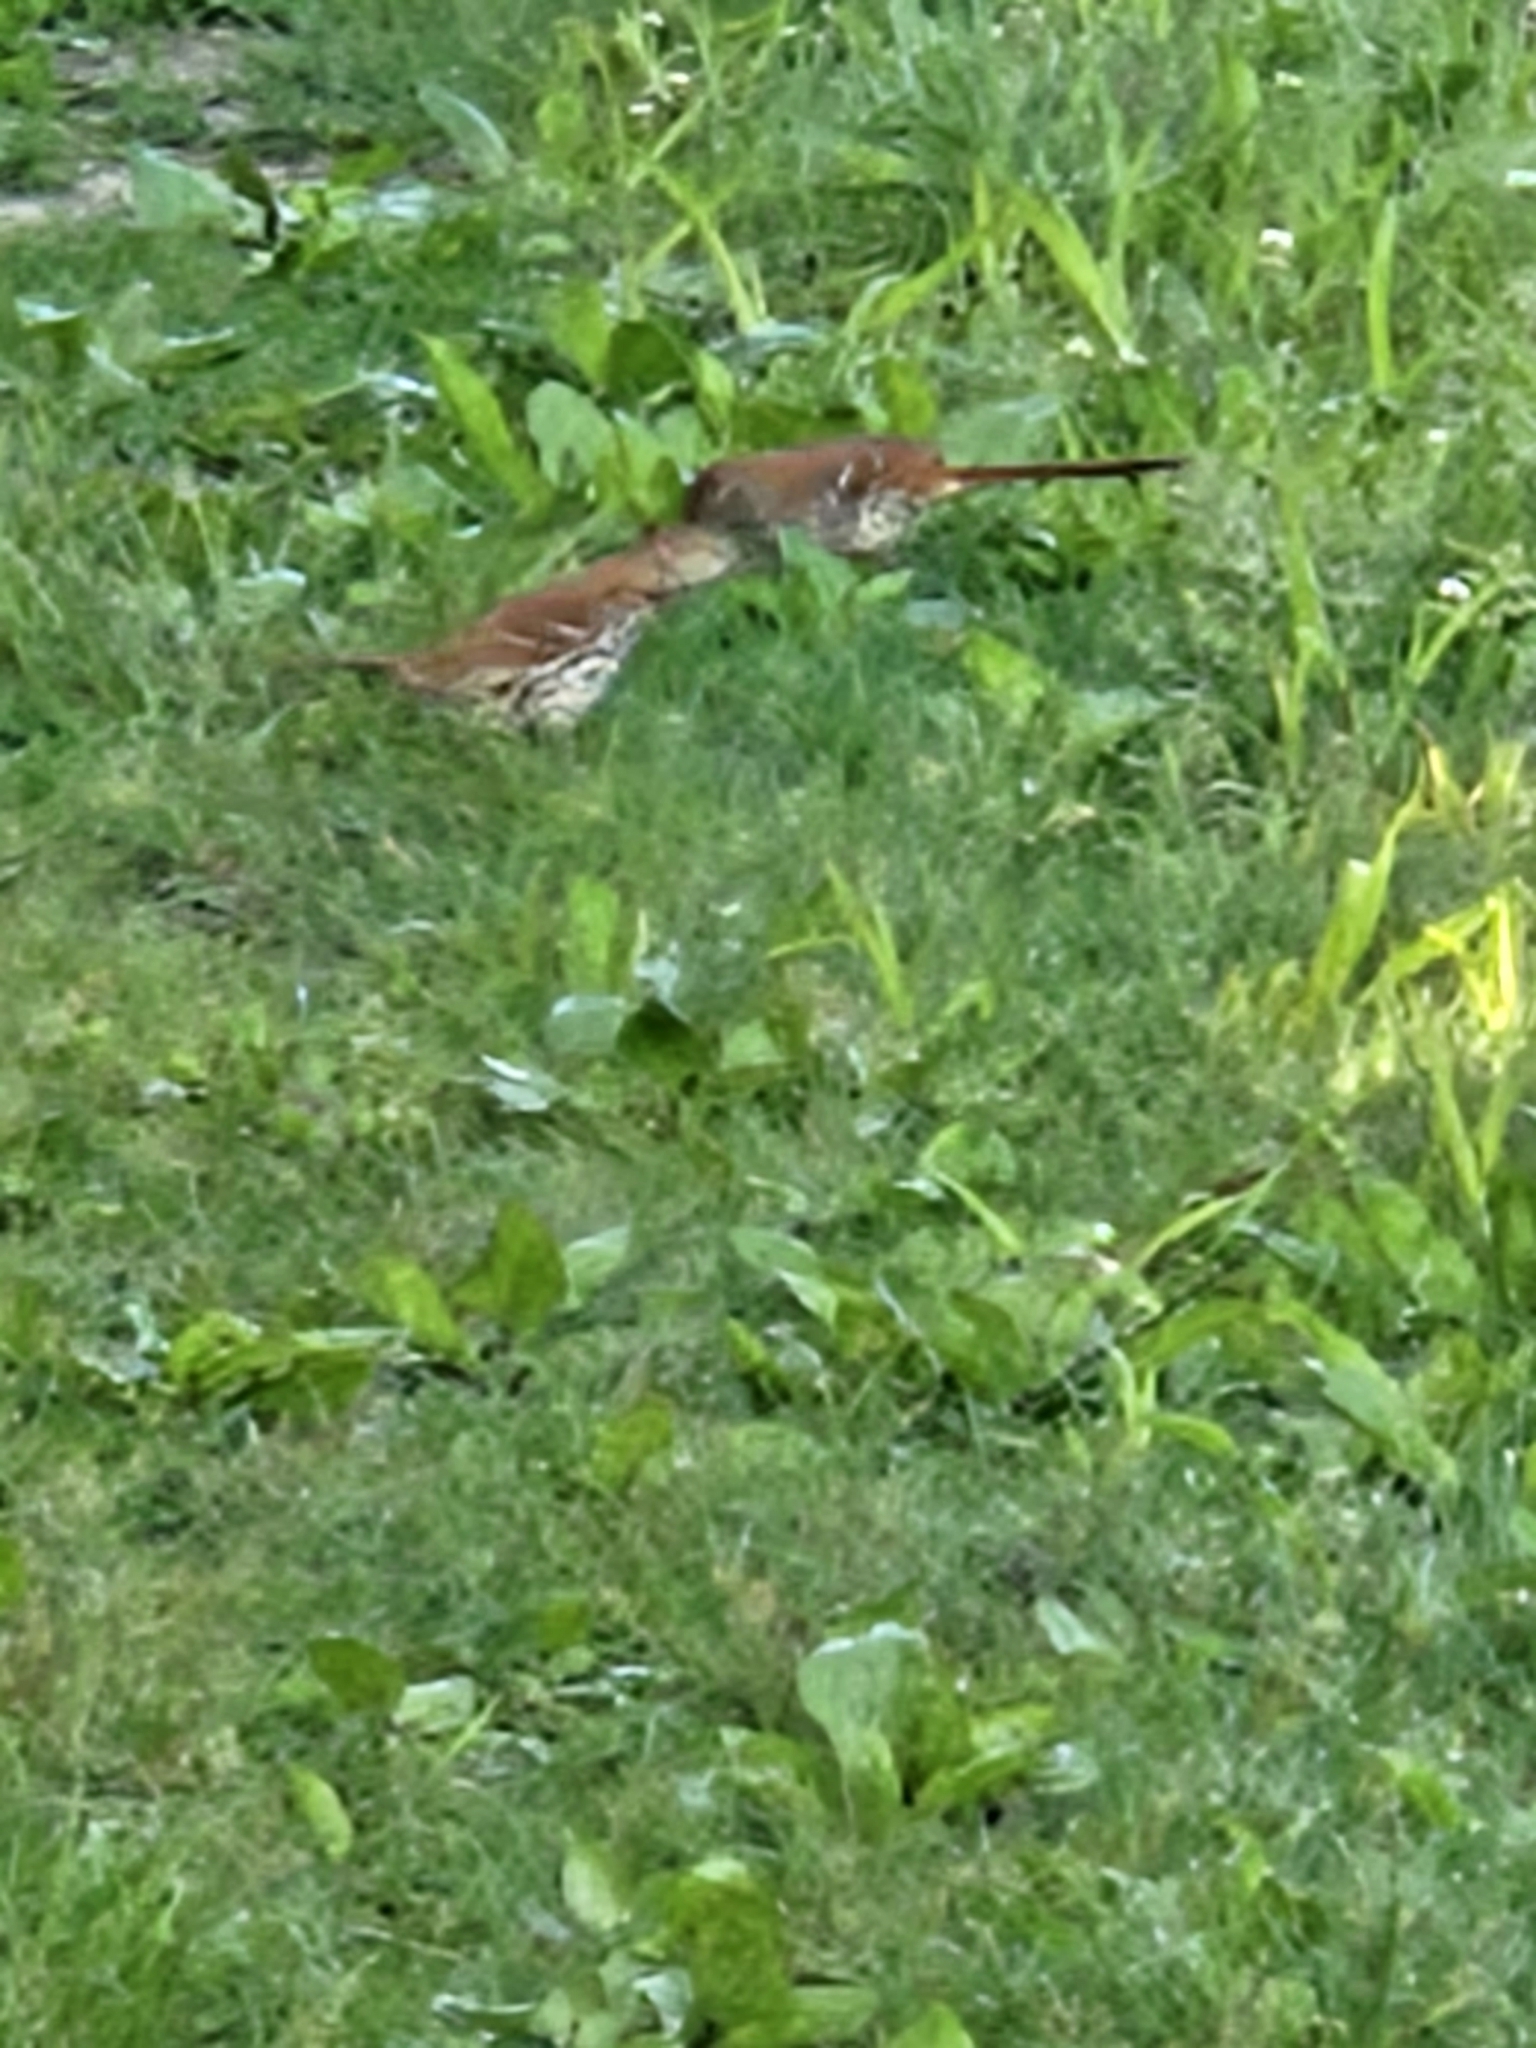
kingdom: Animalia
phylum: Chordata
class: Aves
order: Passeriformes
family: Mimidae
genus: Toxostoma
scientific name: Toxostoma rufum
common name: Brown thrasher
